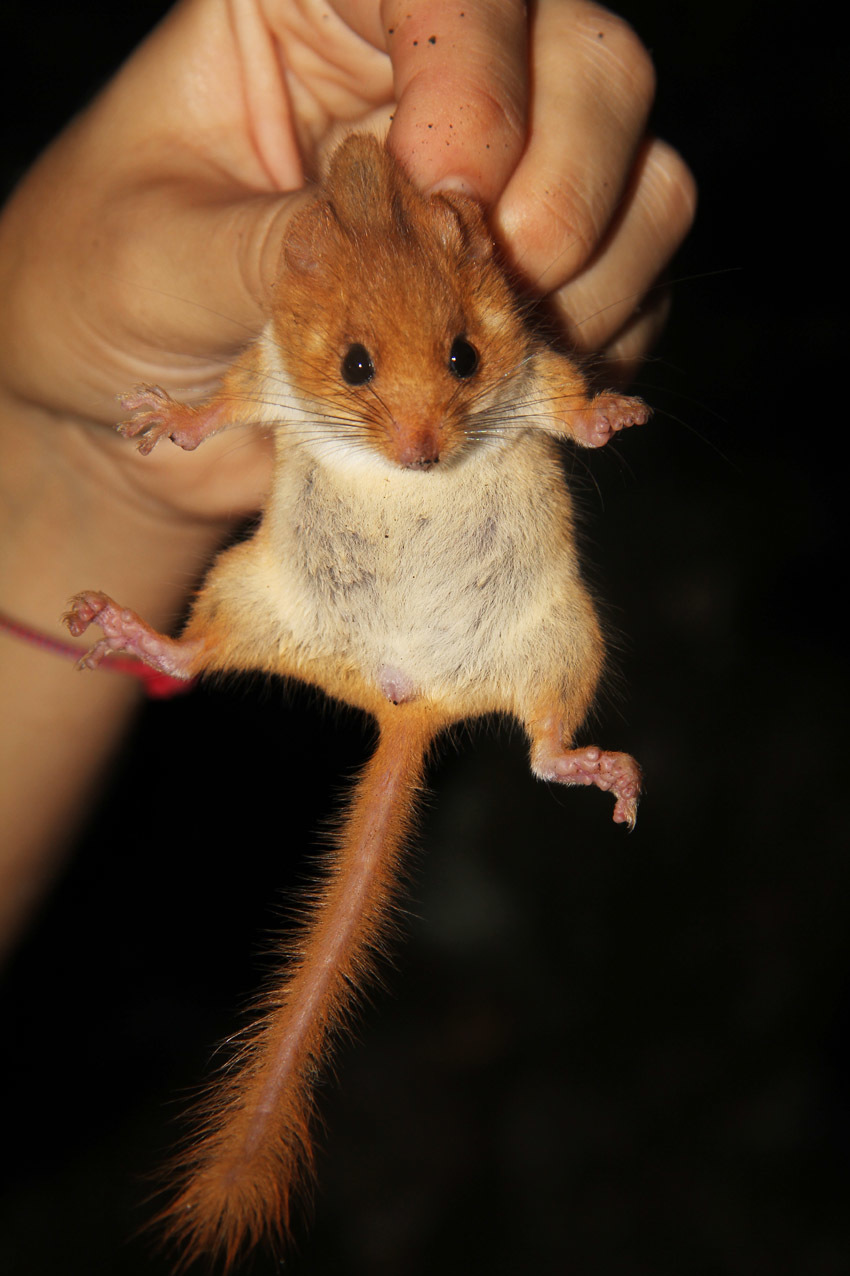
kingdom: Animalia
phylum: Chordata
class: Mammalia
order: Rodentia
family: Gliridae
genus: Muscardinus
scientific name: Muscardinus avellanarius
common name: Hazel dormouse
